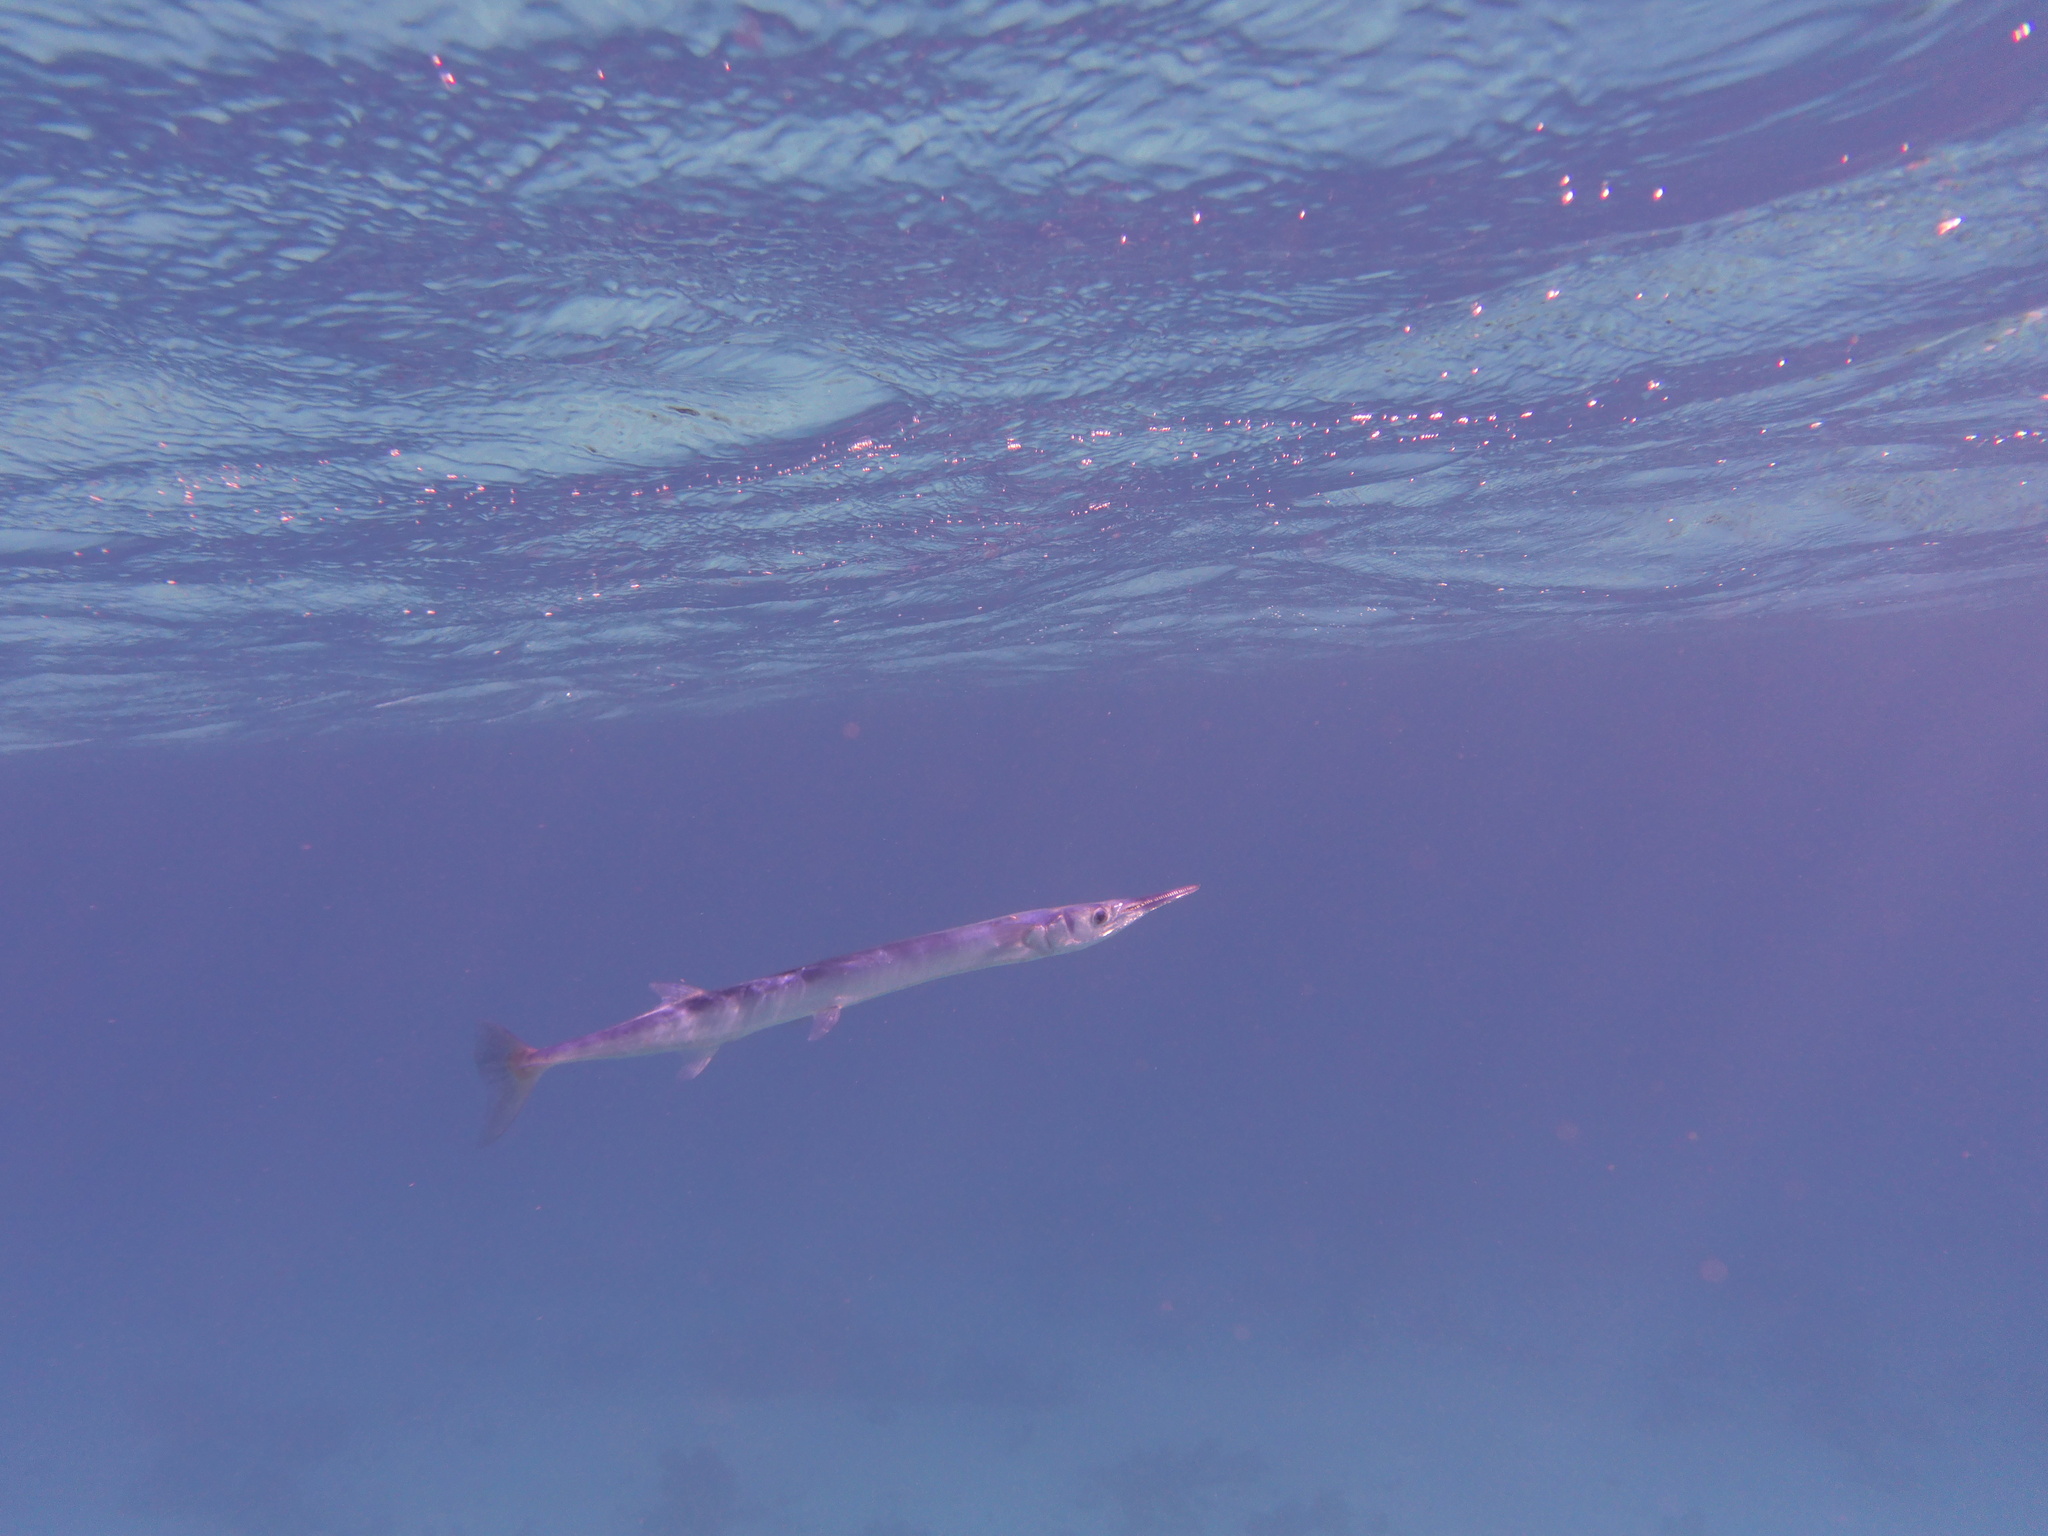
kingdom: Animalia
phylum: Chordata
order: Beloniformes
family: Belonidae
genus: Tylosurus
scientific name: Tylosurus crocodilus
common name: Houndfish
